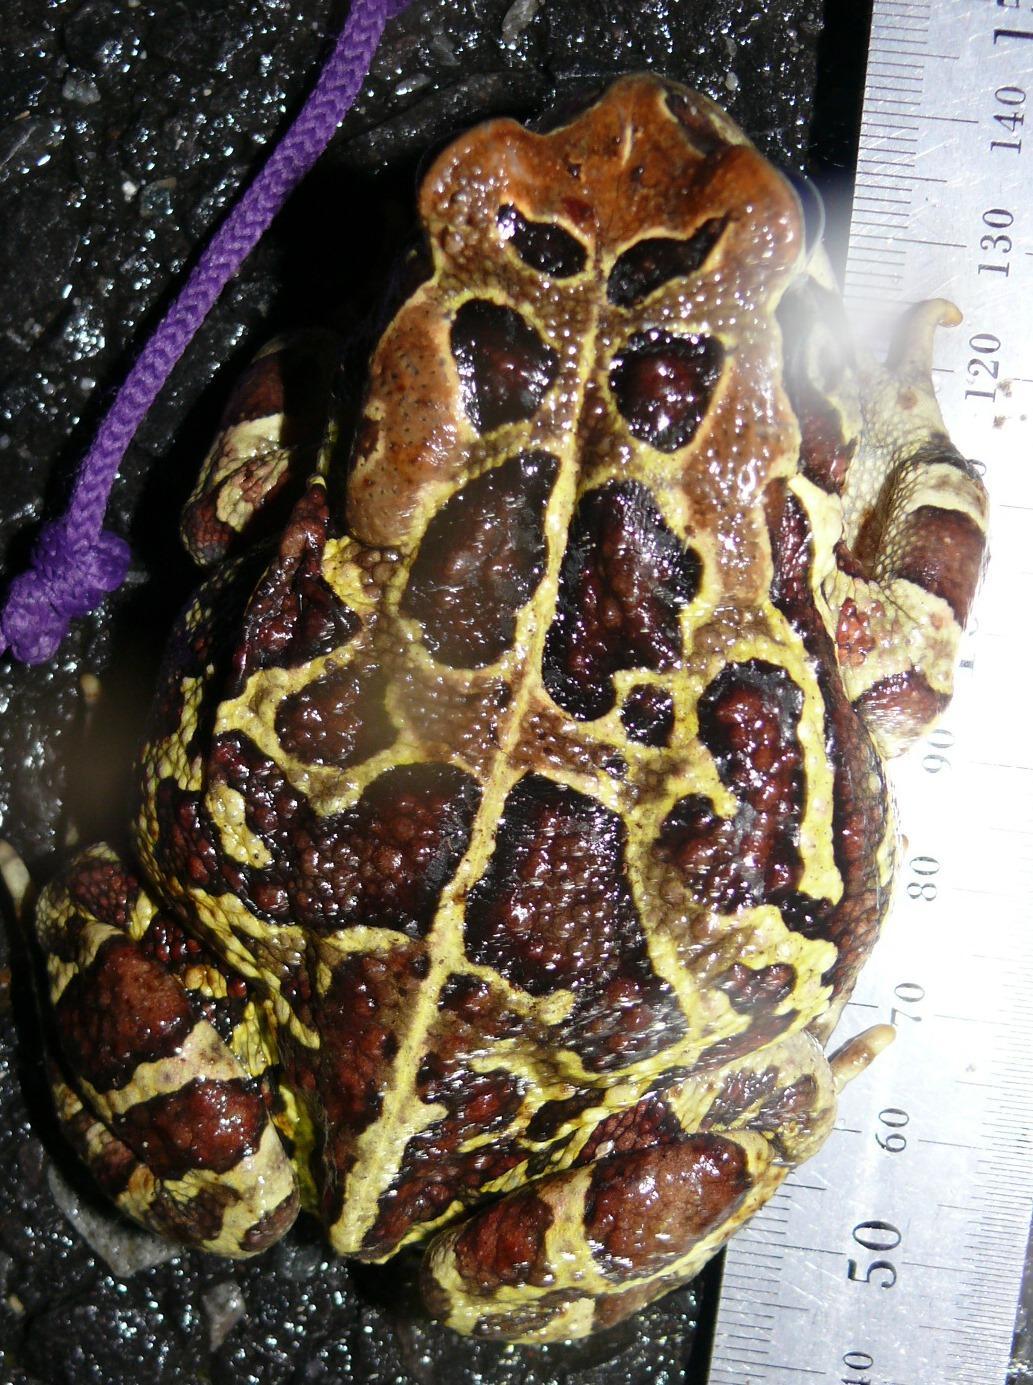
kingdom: Animalia
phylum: Chordata
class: Amphibia
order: Anura
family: Bufonidae
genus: Sclerophrys
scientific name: Sclerophrys pantherina
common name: Panther toad
